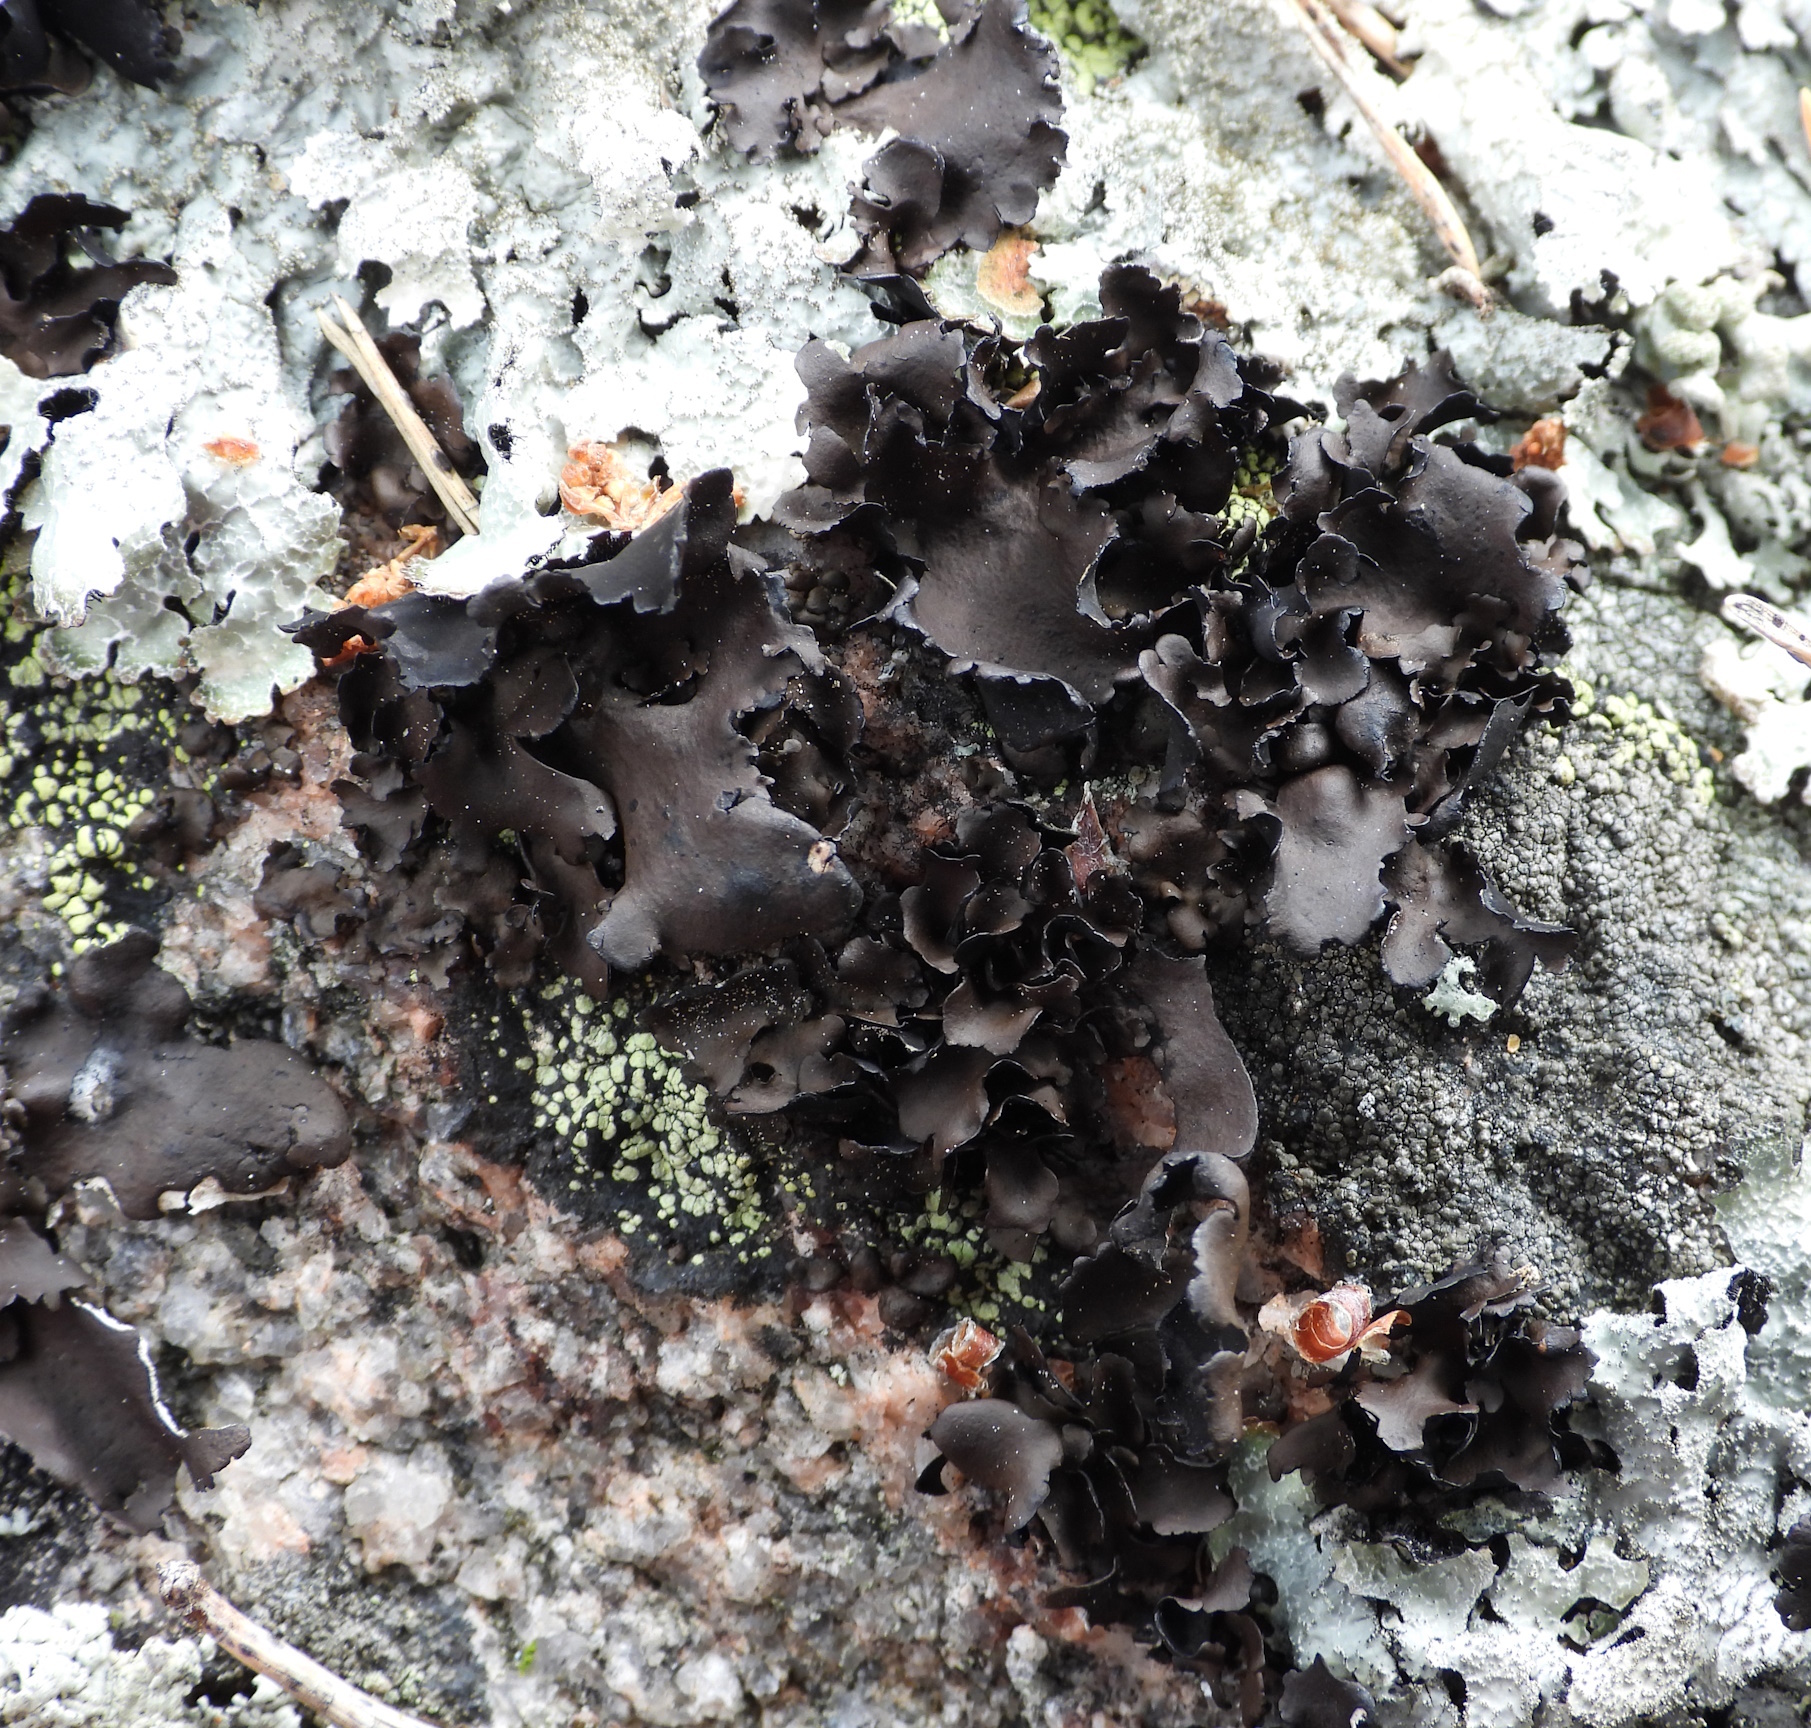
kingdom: Fungi
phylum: Ascomycota
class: Lecanoromycetes
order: Umbilicariales
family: Umbilicariaceae
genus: Umbilicaria
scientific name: Umbilicaria polyphylla
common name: Petalled rocktripe lichen
